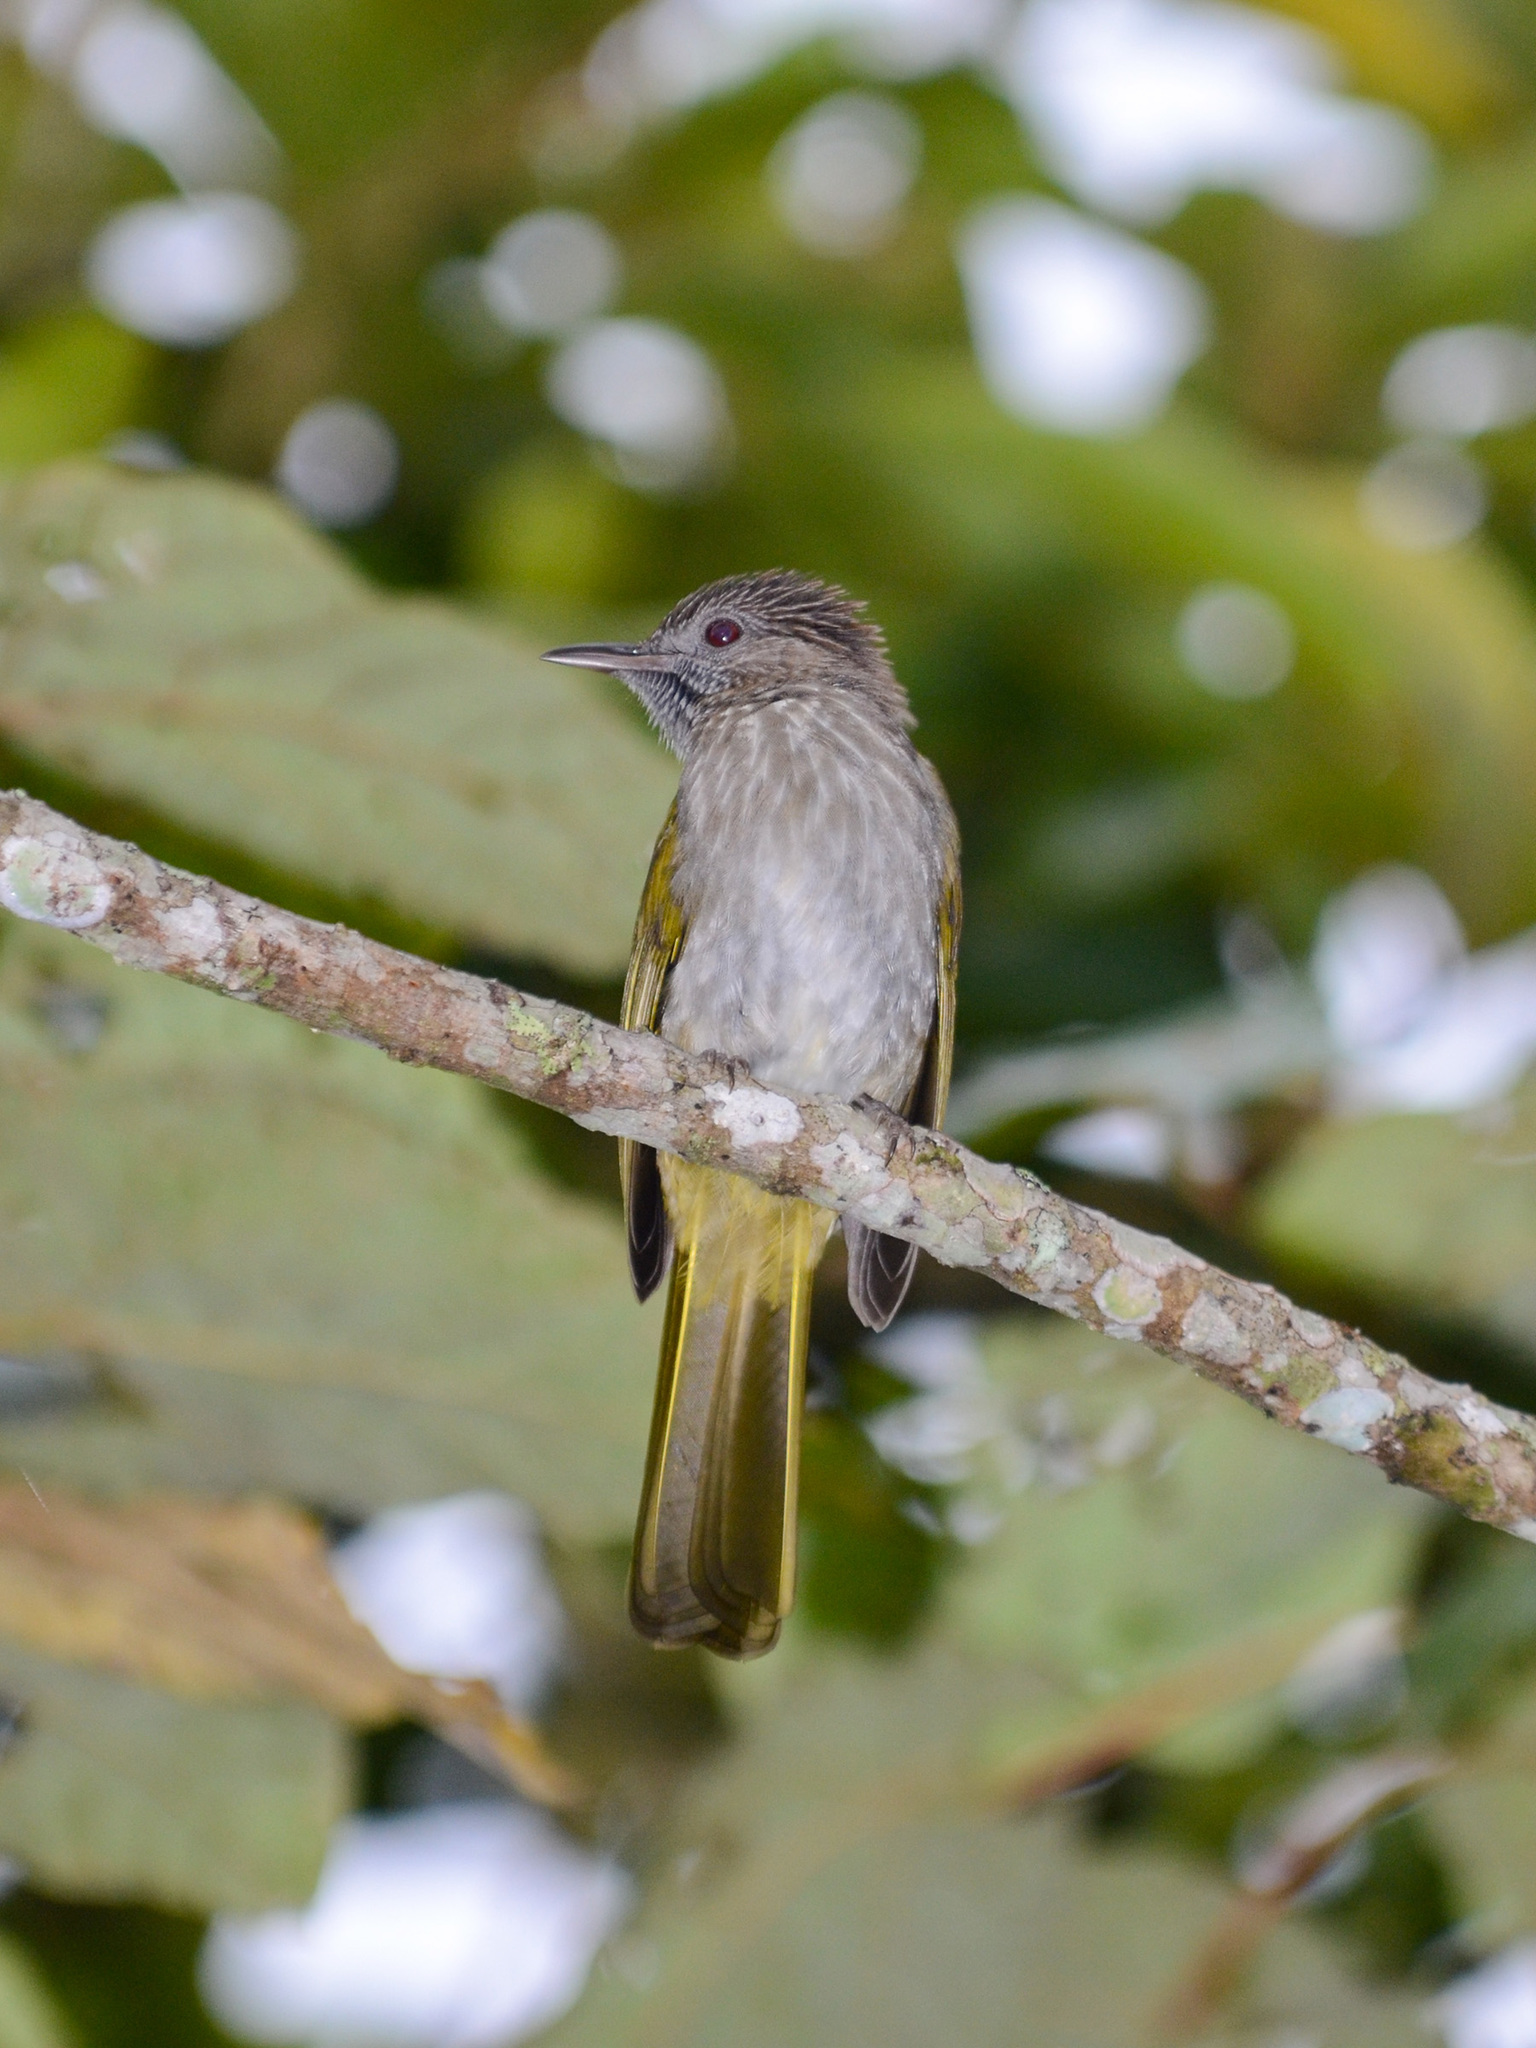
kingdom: Animalia
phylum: Chordata
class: Aves
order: Passeriformes
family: Pycnonotidae
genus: Ixos
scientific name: Ixos mcclellandii
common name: Mountain bulbul
